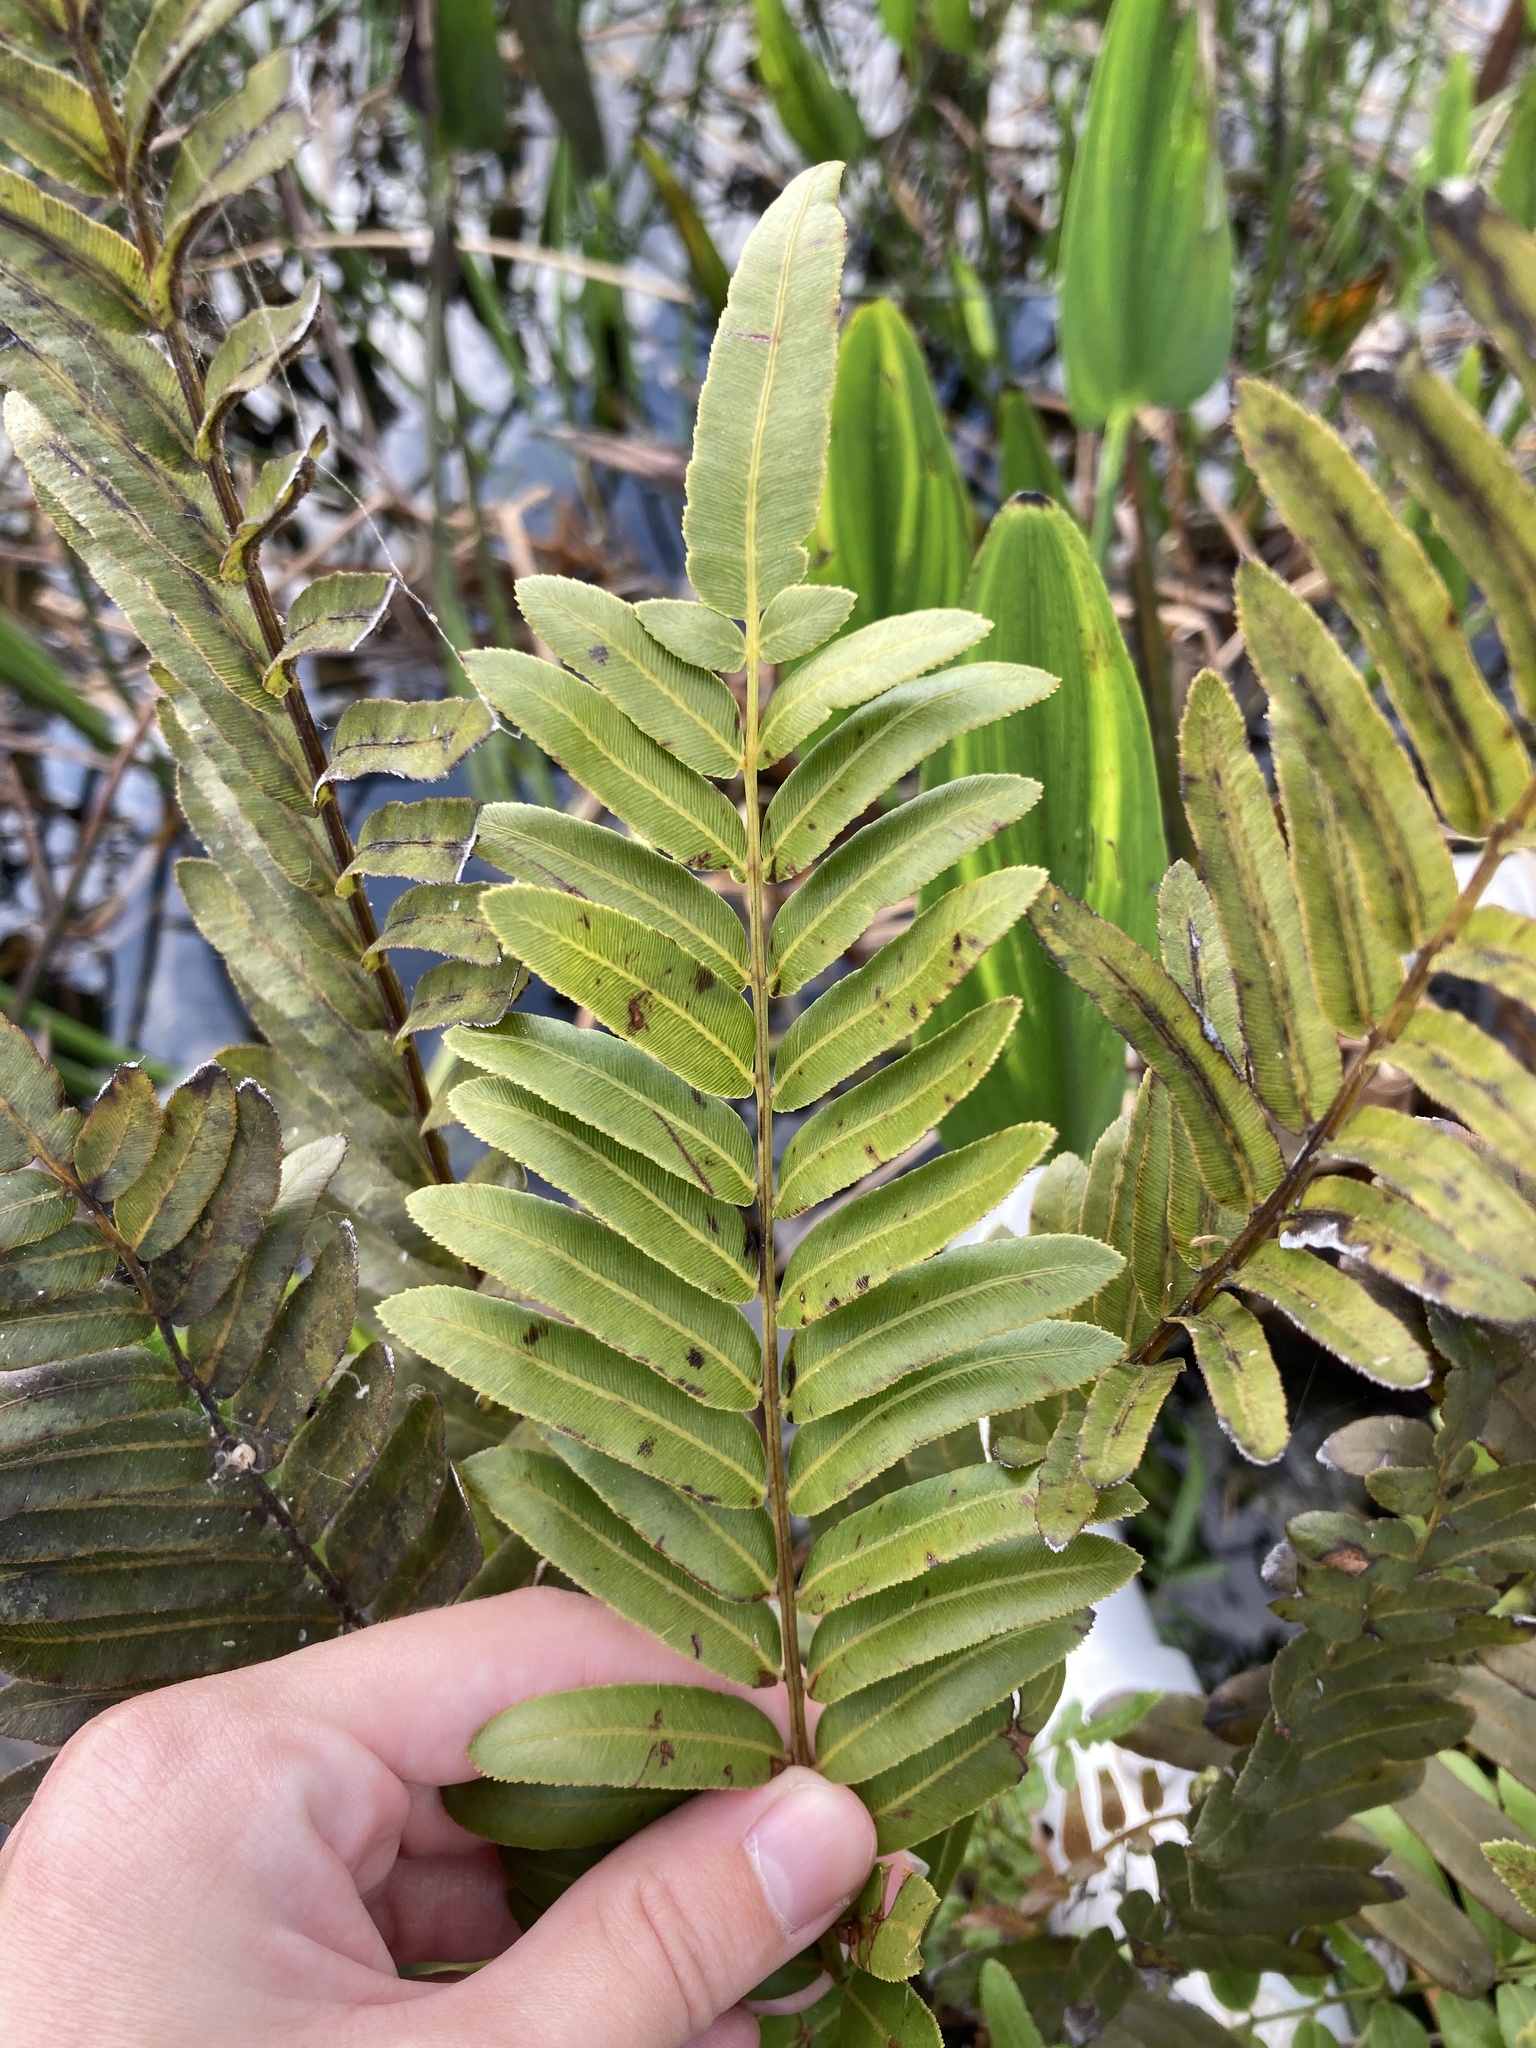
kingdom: Plantae
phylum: Tracheophyta
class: Polypodiopsida
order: Polypodiales
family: Blechnaceae
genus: Telmatoblechnum
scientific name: Telmatoblechnum serrulatum
